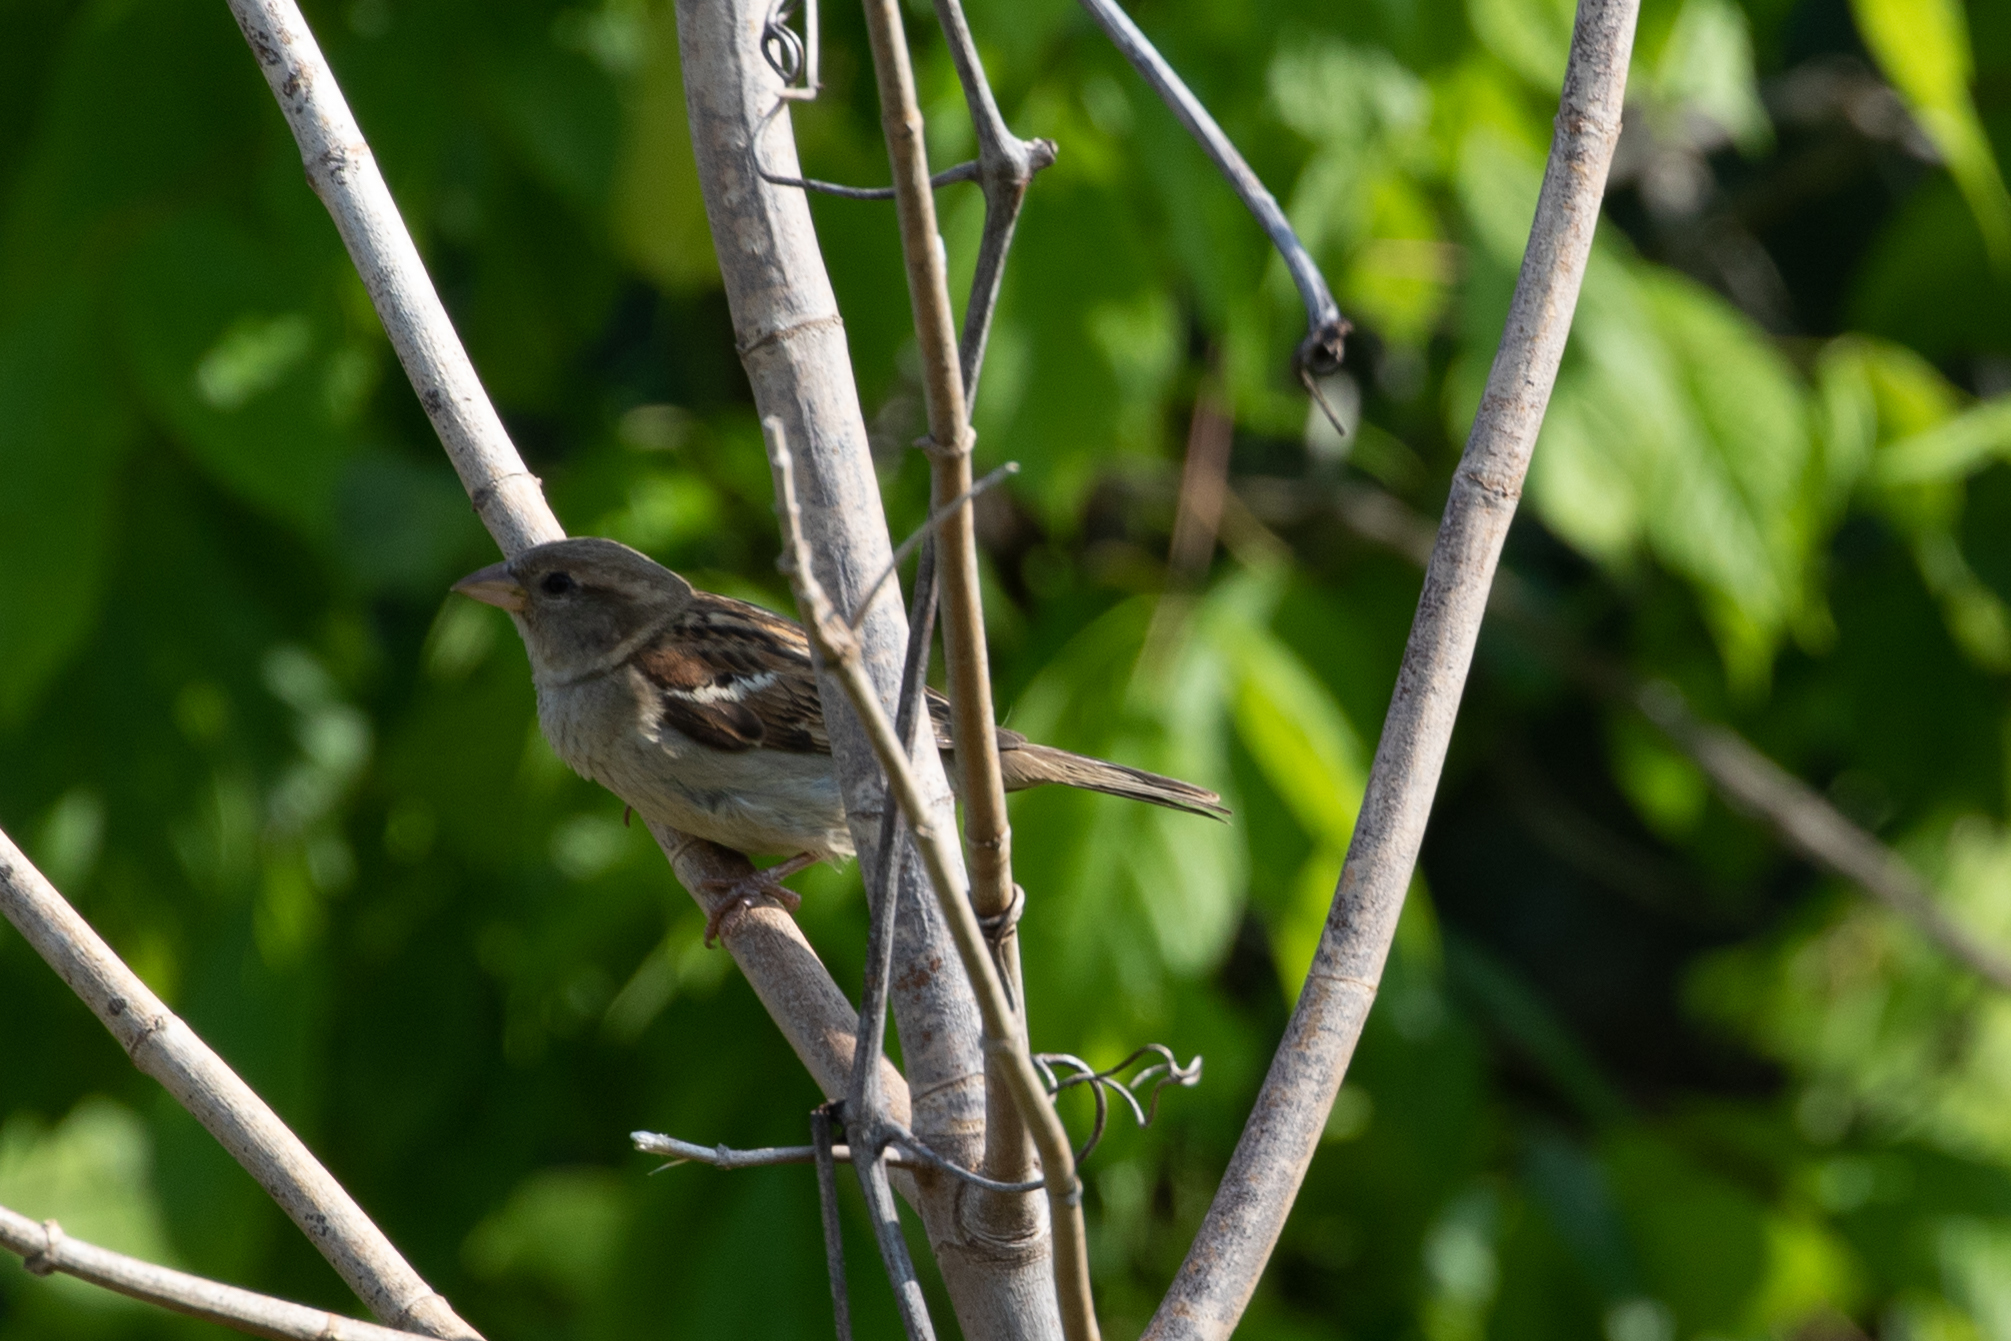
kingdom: Animalia
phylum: Chordata
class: Aves
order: Passeriformes
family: Passeridae
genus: Passer
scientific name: Passer domesticus
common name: House sparrow
